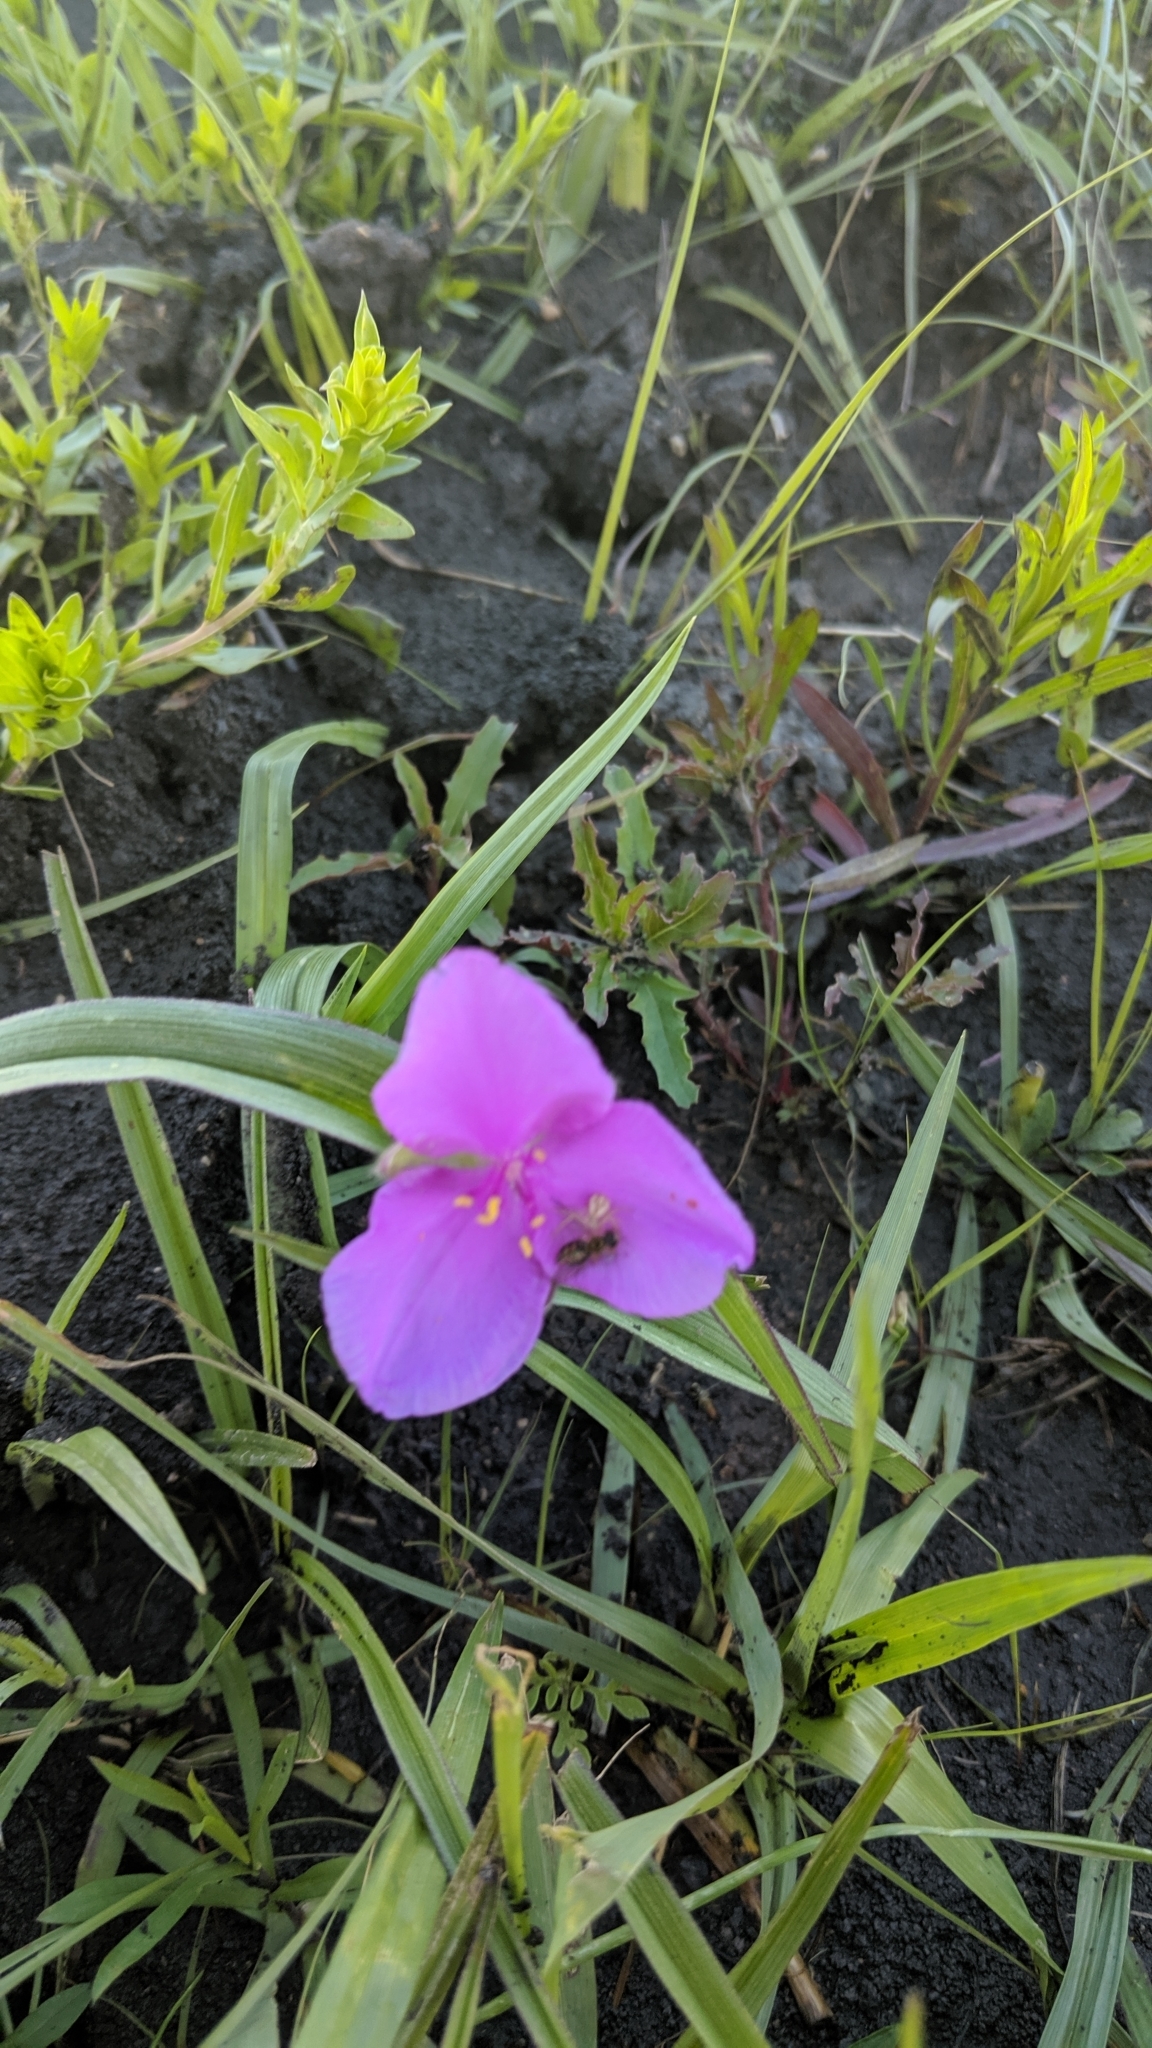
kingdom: Plantae
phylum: Tracheophyta
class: Liliopsida
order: Commelinales
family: Commelinaceae
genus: Tradescantia
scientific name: Tradescantia bracteata
